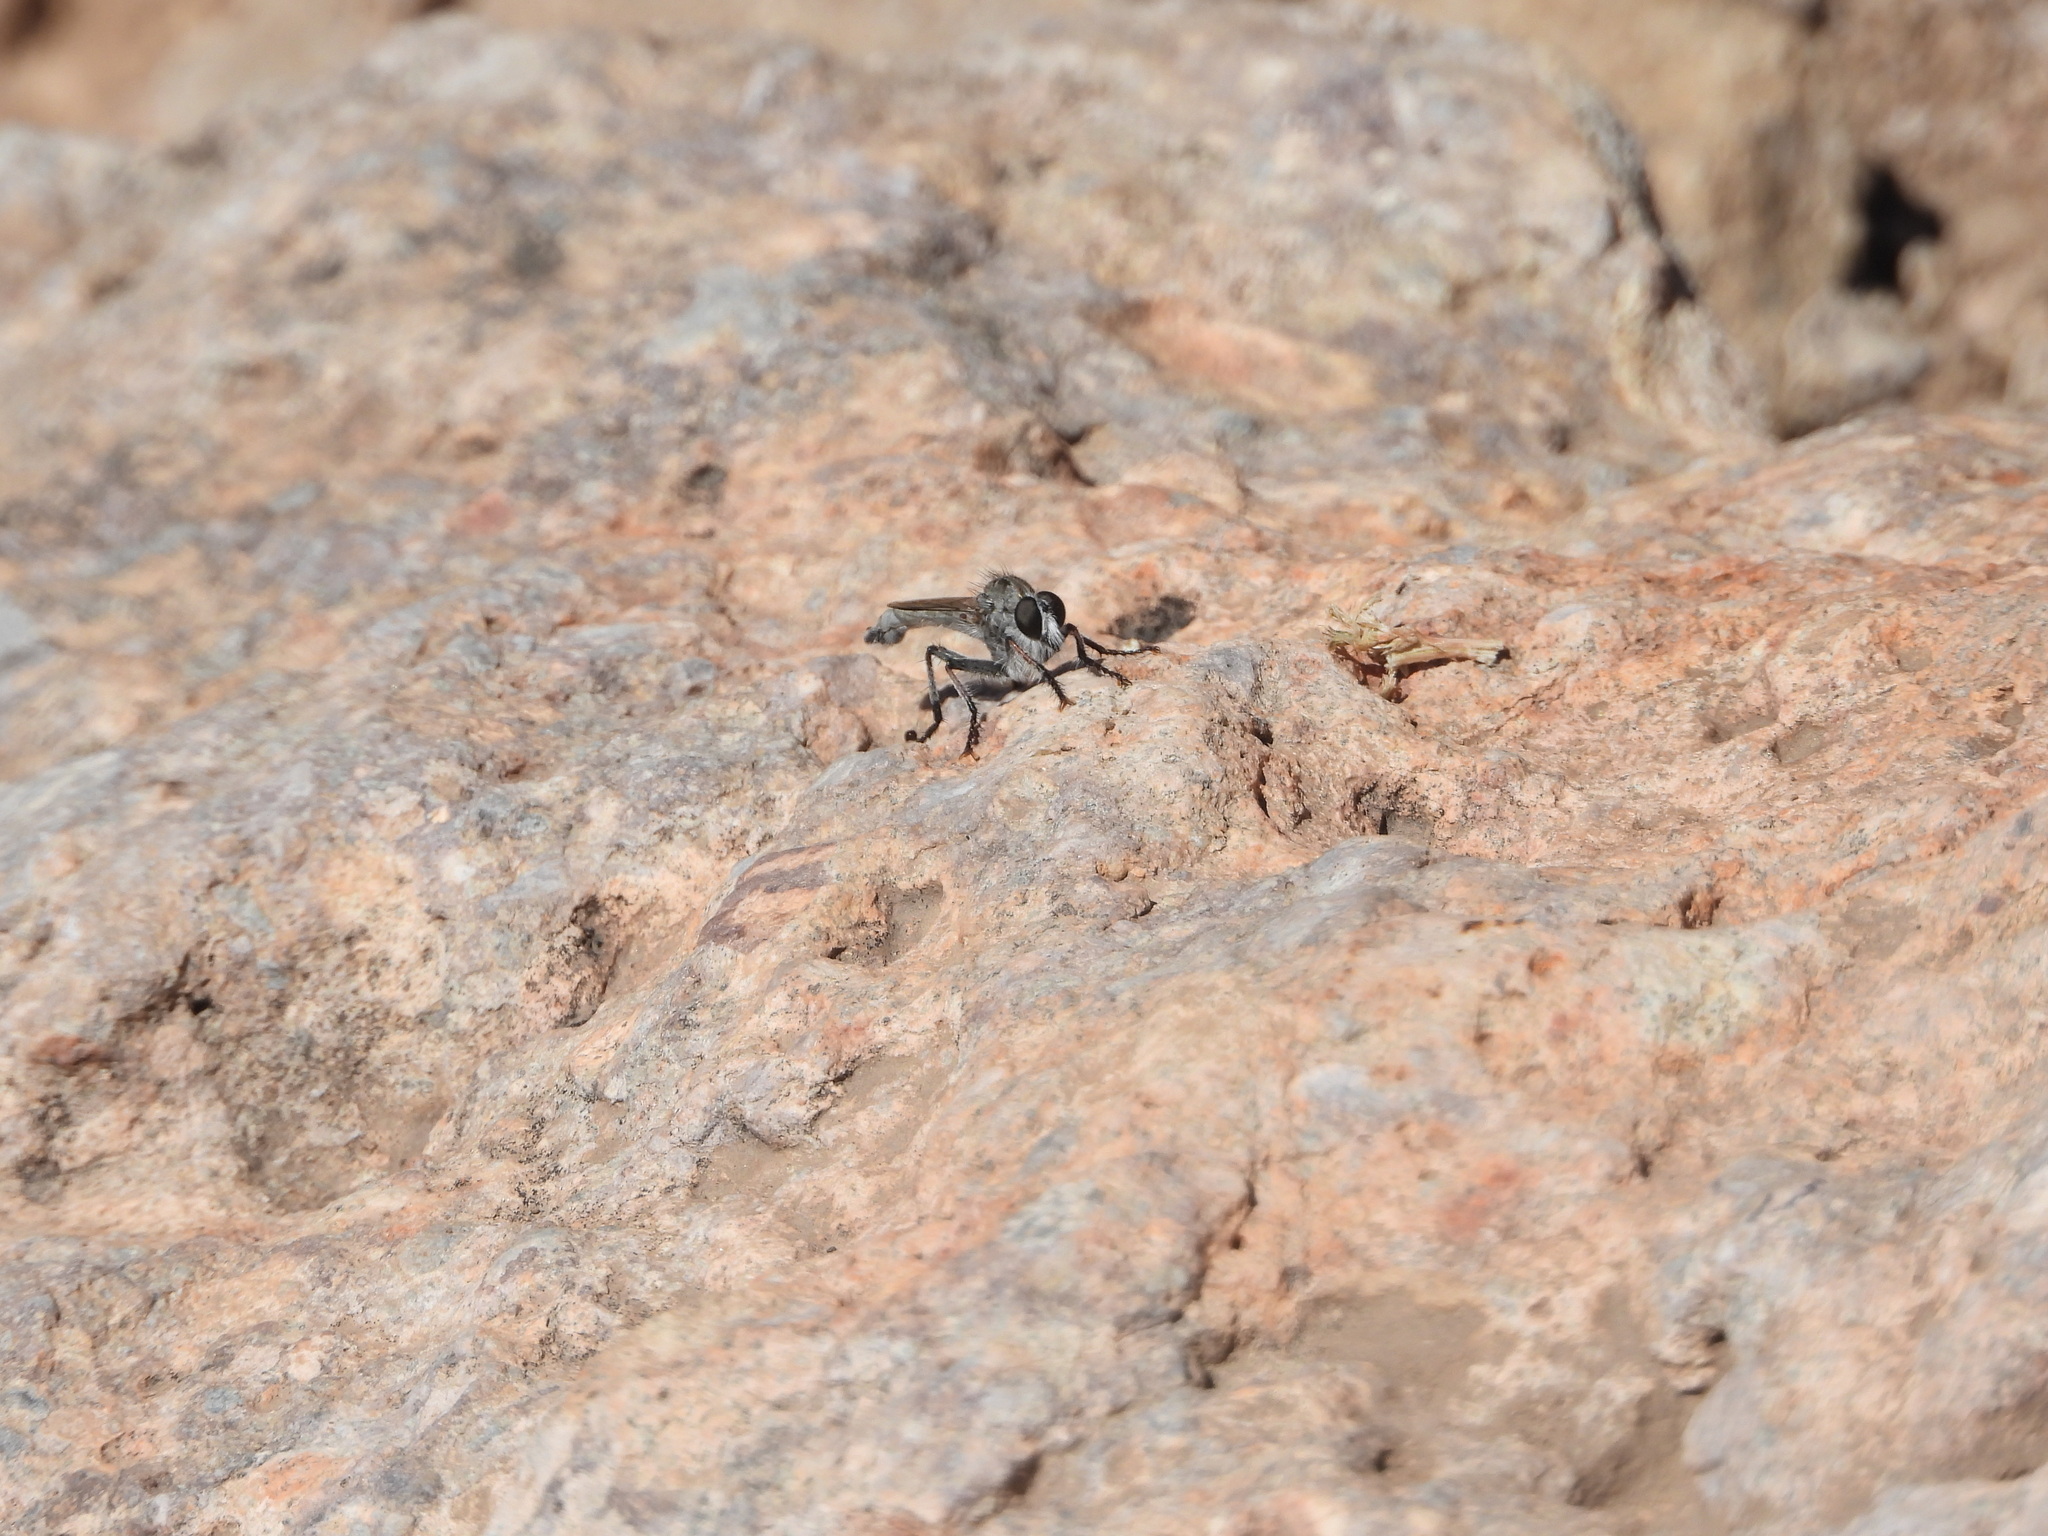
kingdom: Animalia
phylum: Arthropoda
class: Insecta
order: Diptera
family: Asilidae
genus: Nevadasilus
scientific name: Nevadasilus
